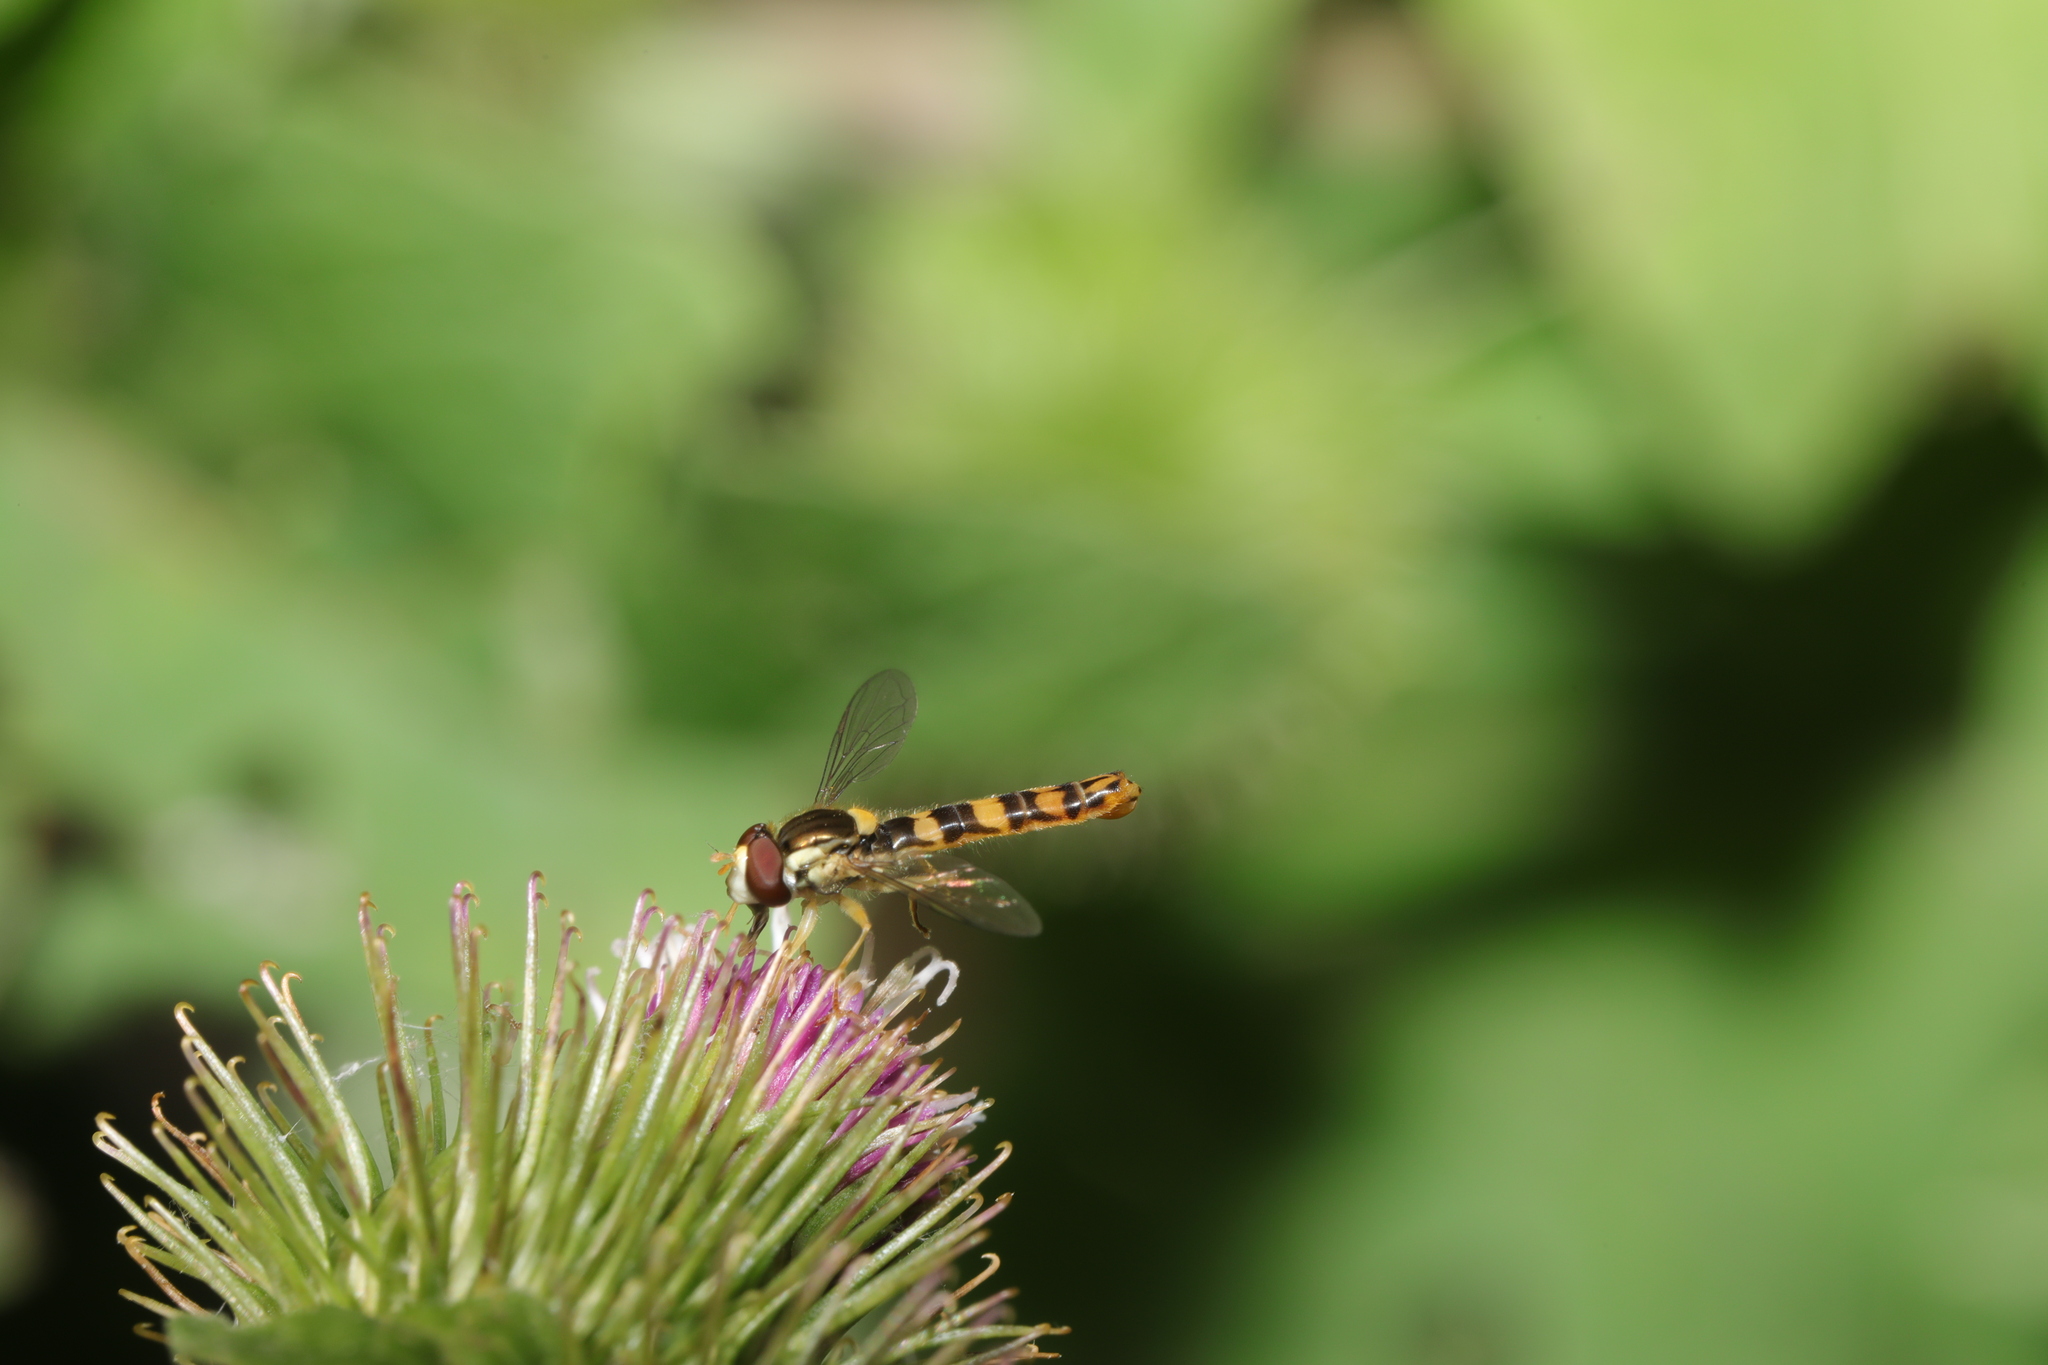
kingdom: Animalia
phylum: Arthropoda
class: Insecta
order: Diptera
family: Syrphidae
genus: Sphaerophoria
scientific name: Sphaerophoria scripta
